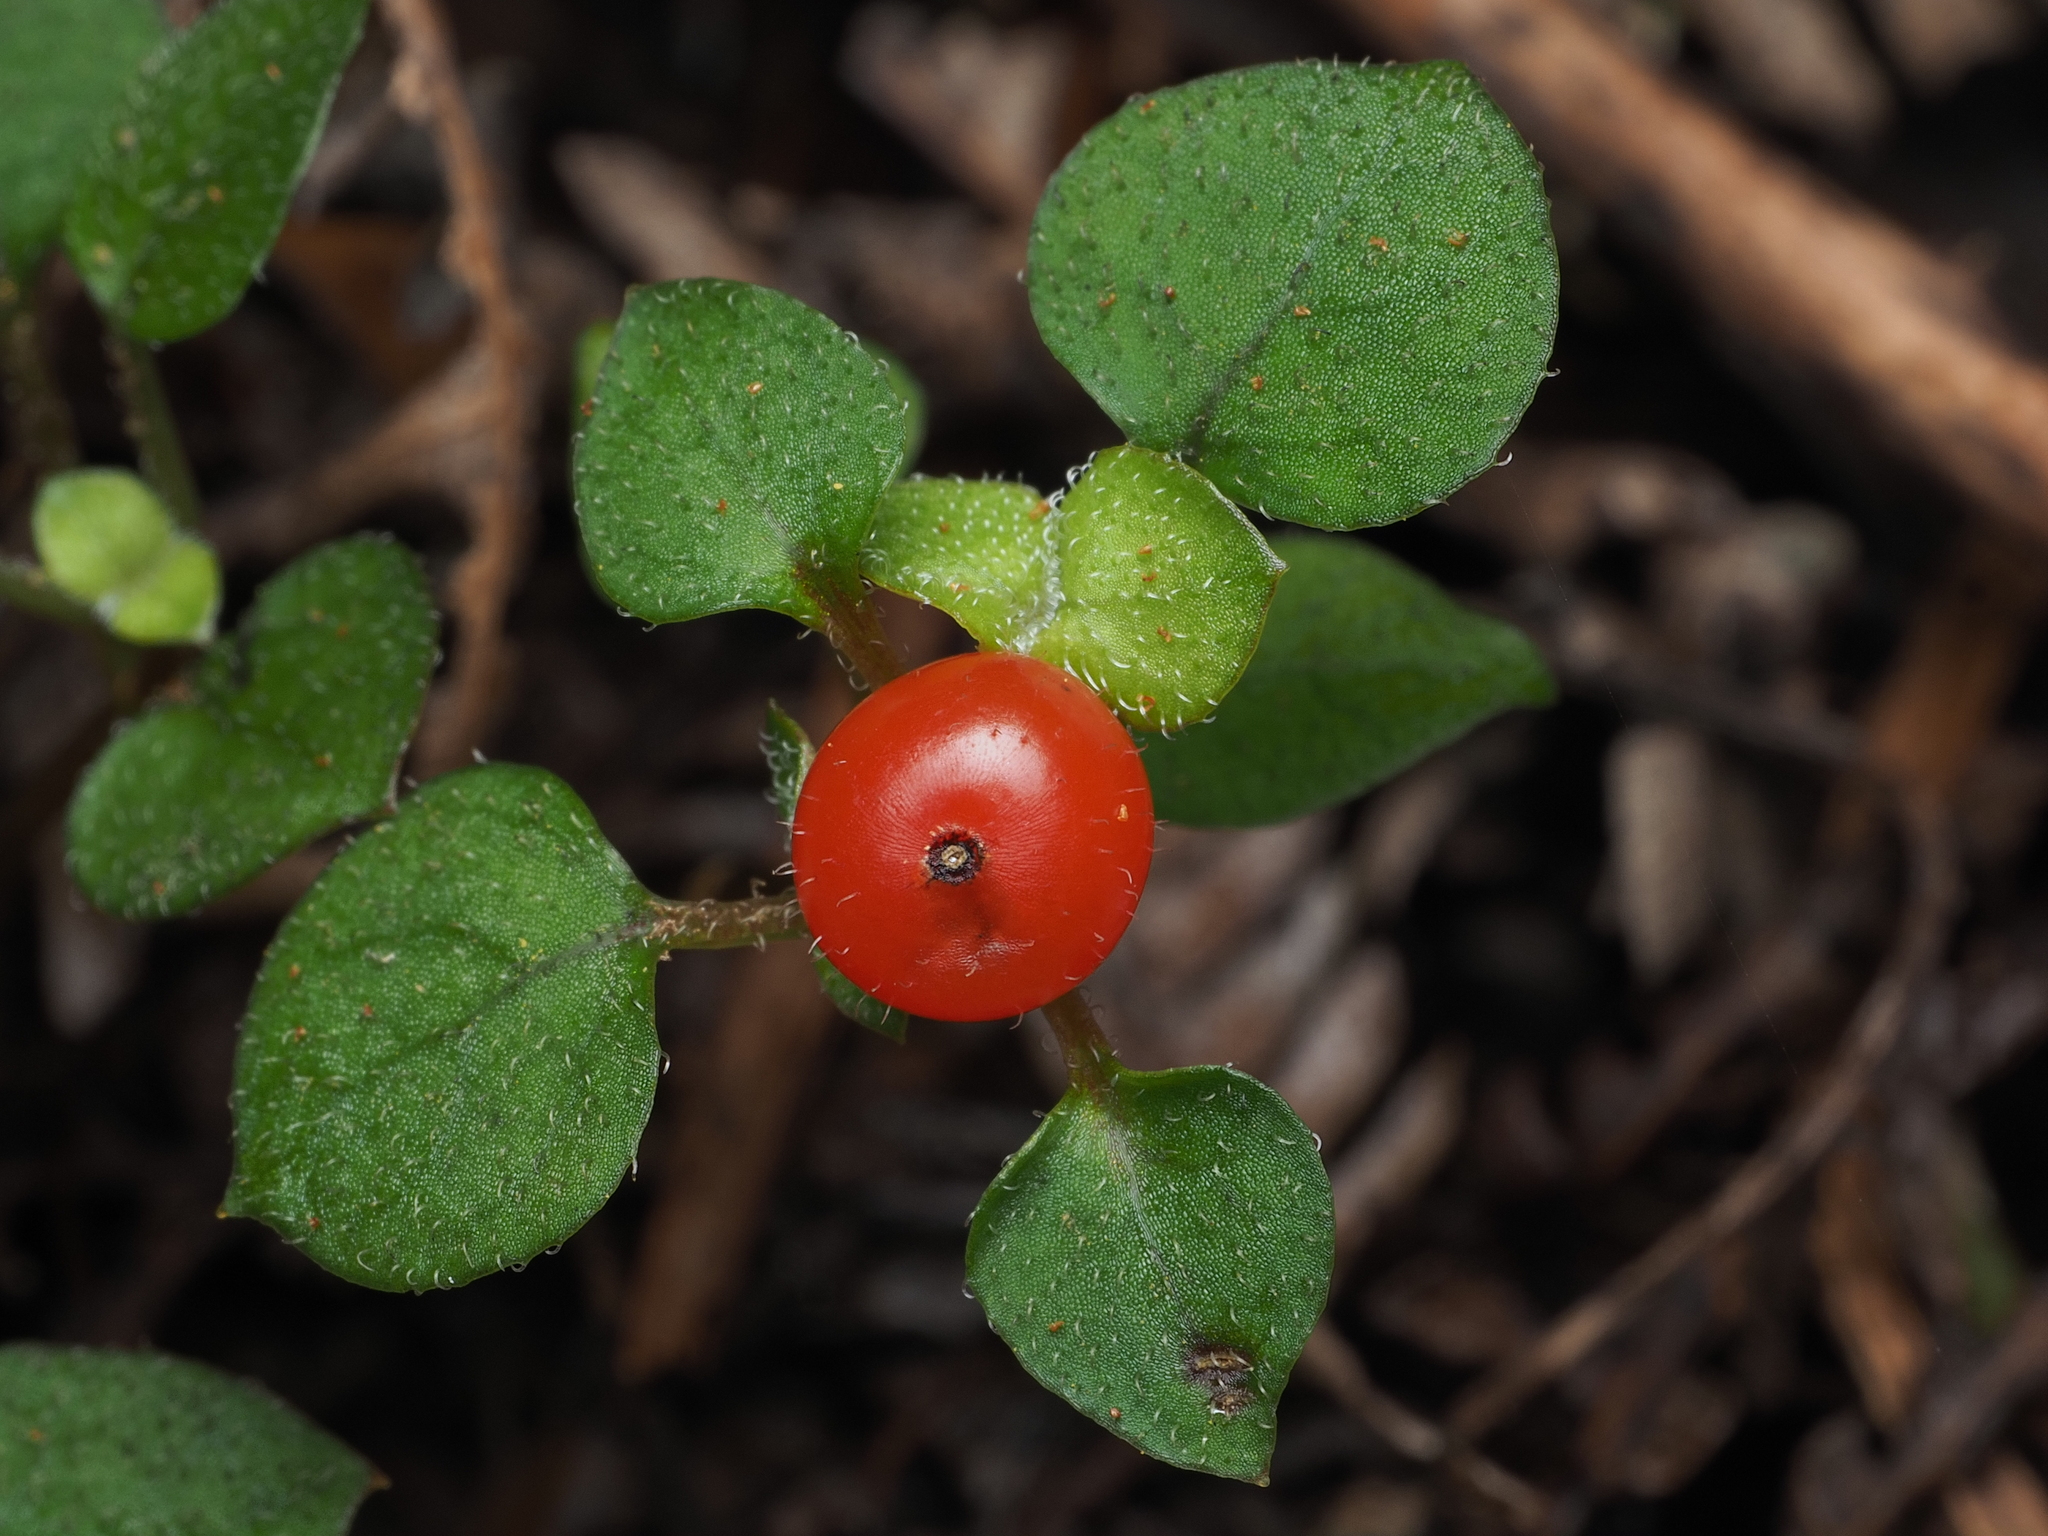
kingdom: Plantae
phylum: Tracheophyta
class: Magnoliopsida
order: Gentianales
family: Rubiaceae
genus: Nertera
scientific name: Nertera dichondrifolia
